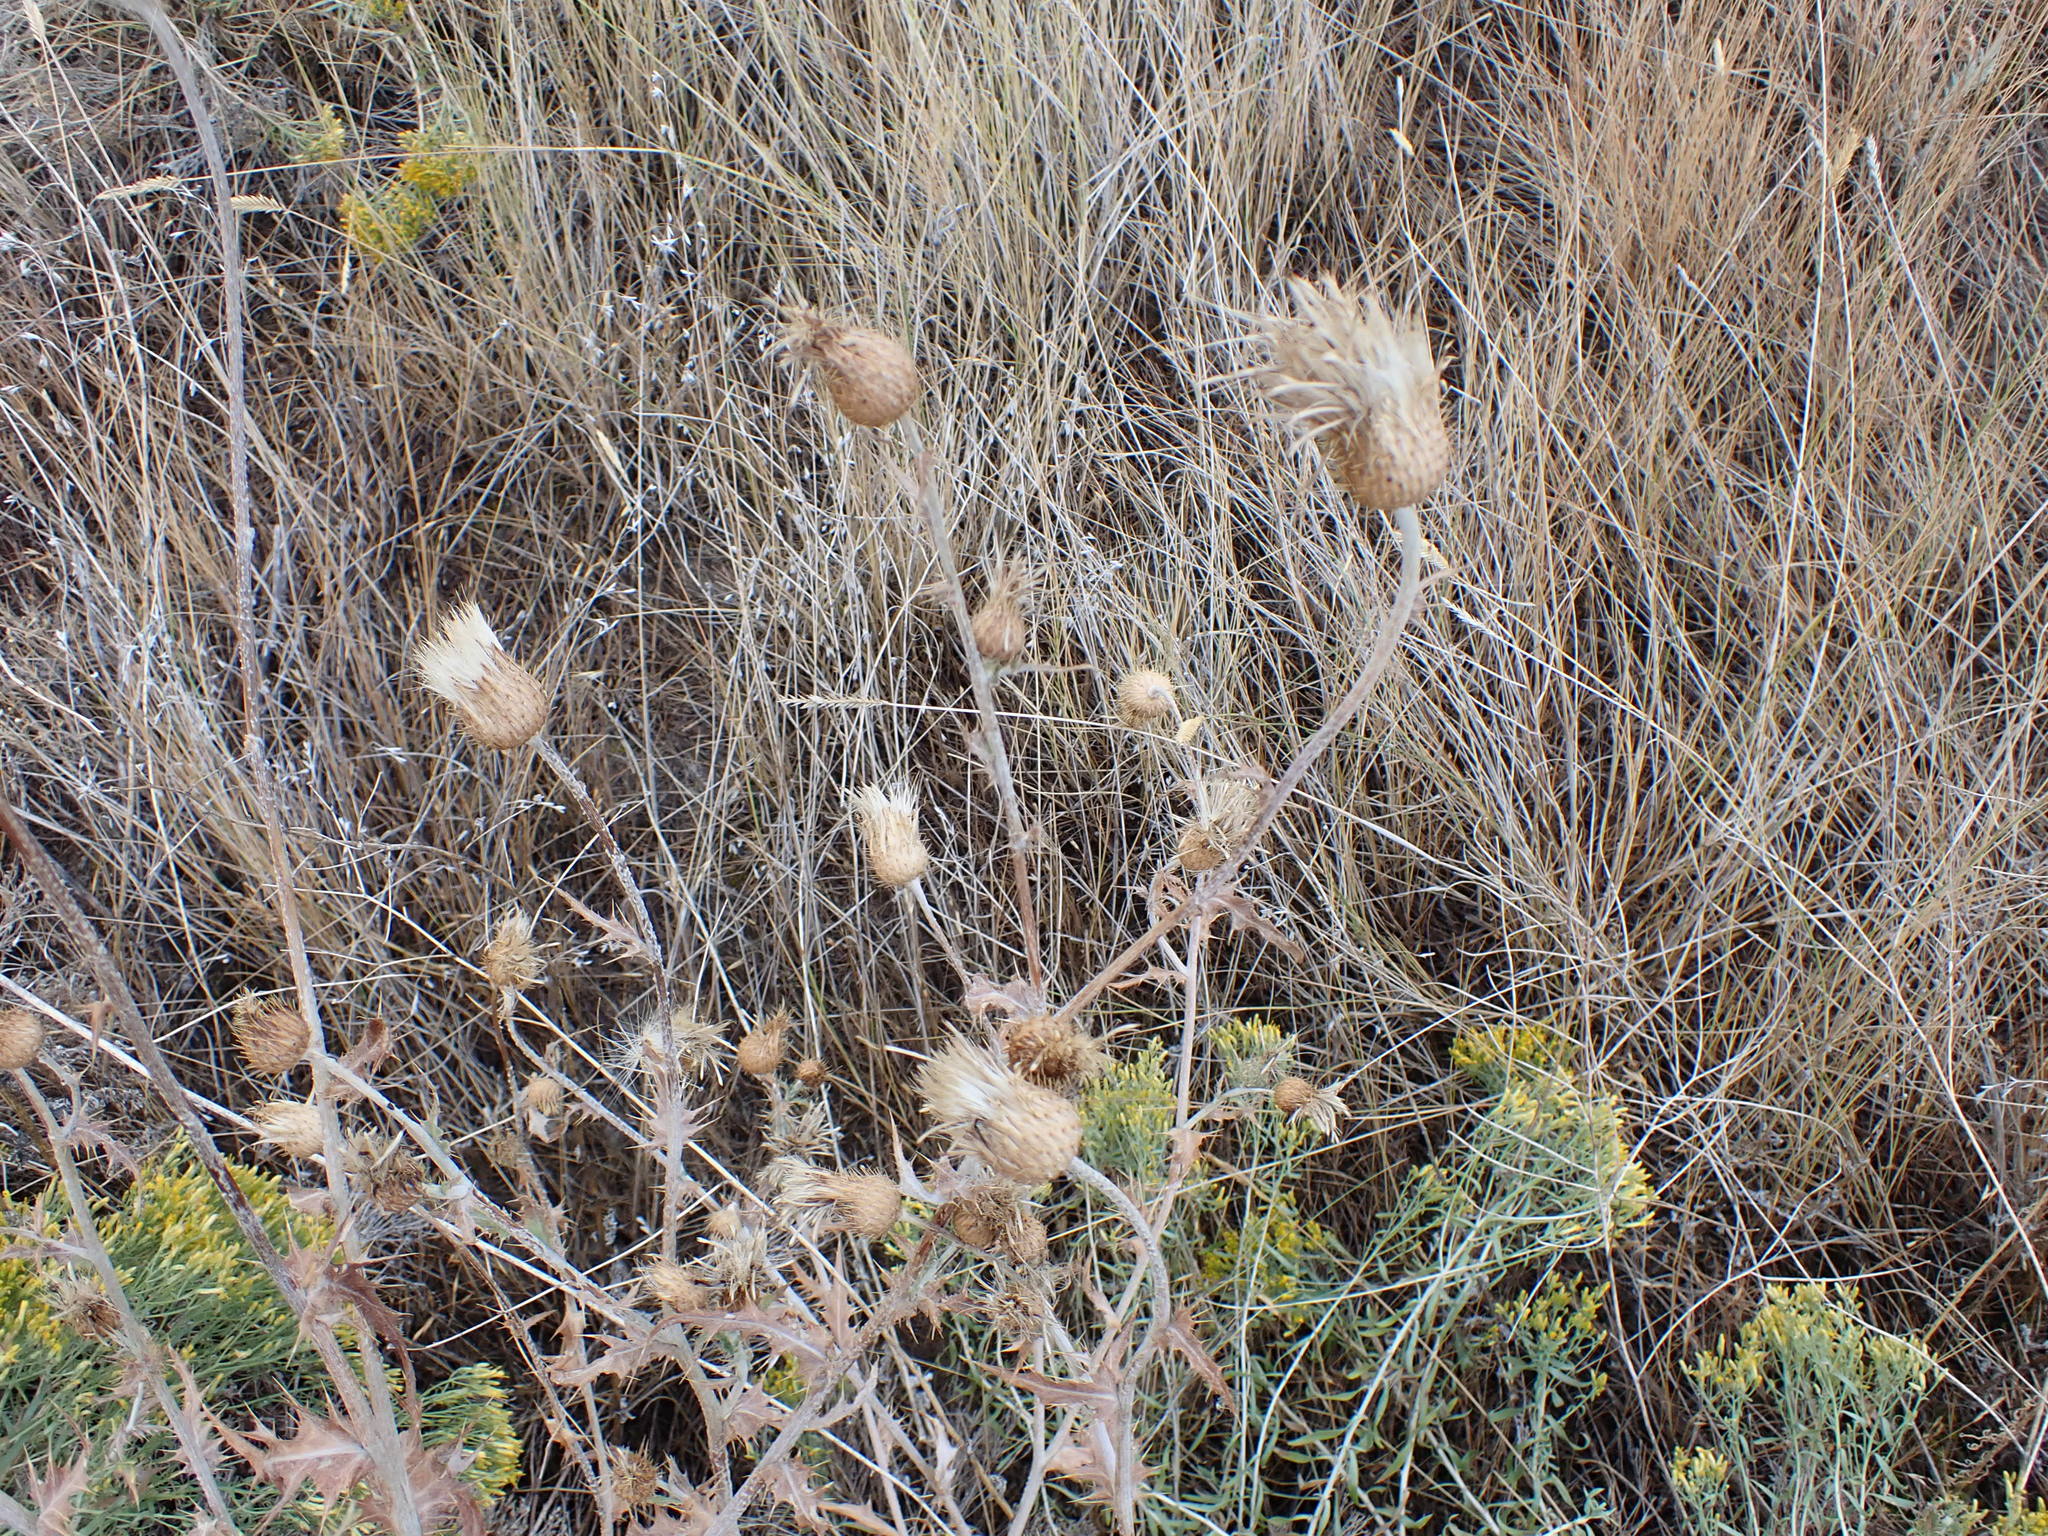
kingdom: Plantae
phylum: Tracheophyta
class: Magnoliopsida
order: Asterales
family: Asteraceae
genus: Cirsium
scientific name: Cirsium undulatum
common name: Pasture thistle
